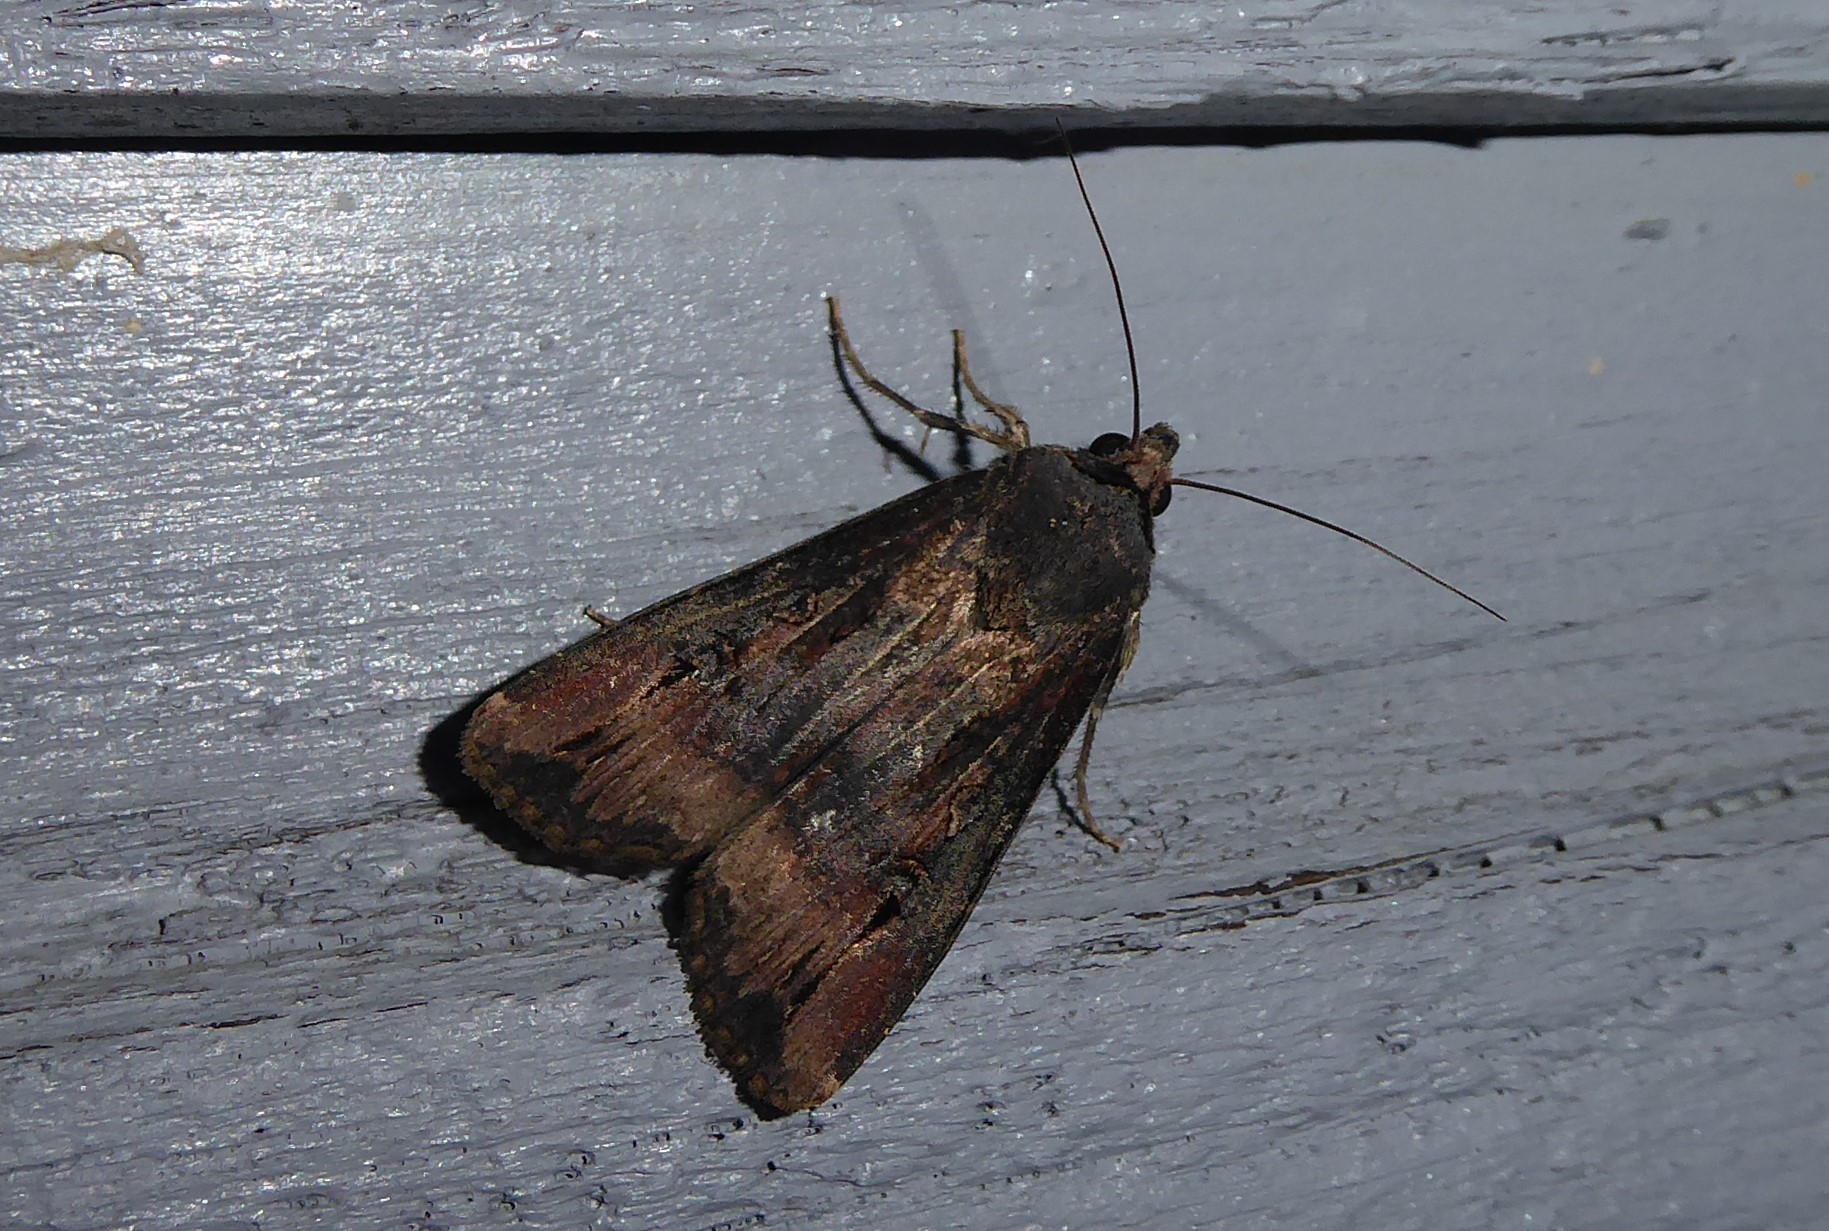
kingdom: Animalia
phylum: Arthropoda
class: Insecta
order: Lepidoptera
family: Noctuidae
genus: Agrotis
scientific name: Agrotis ipsilon
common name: Dark sword-grass
